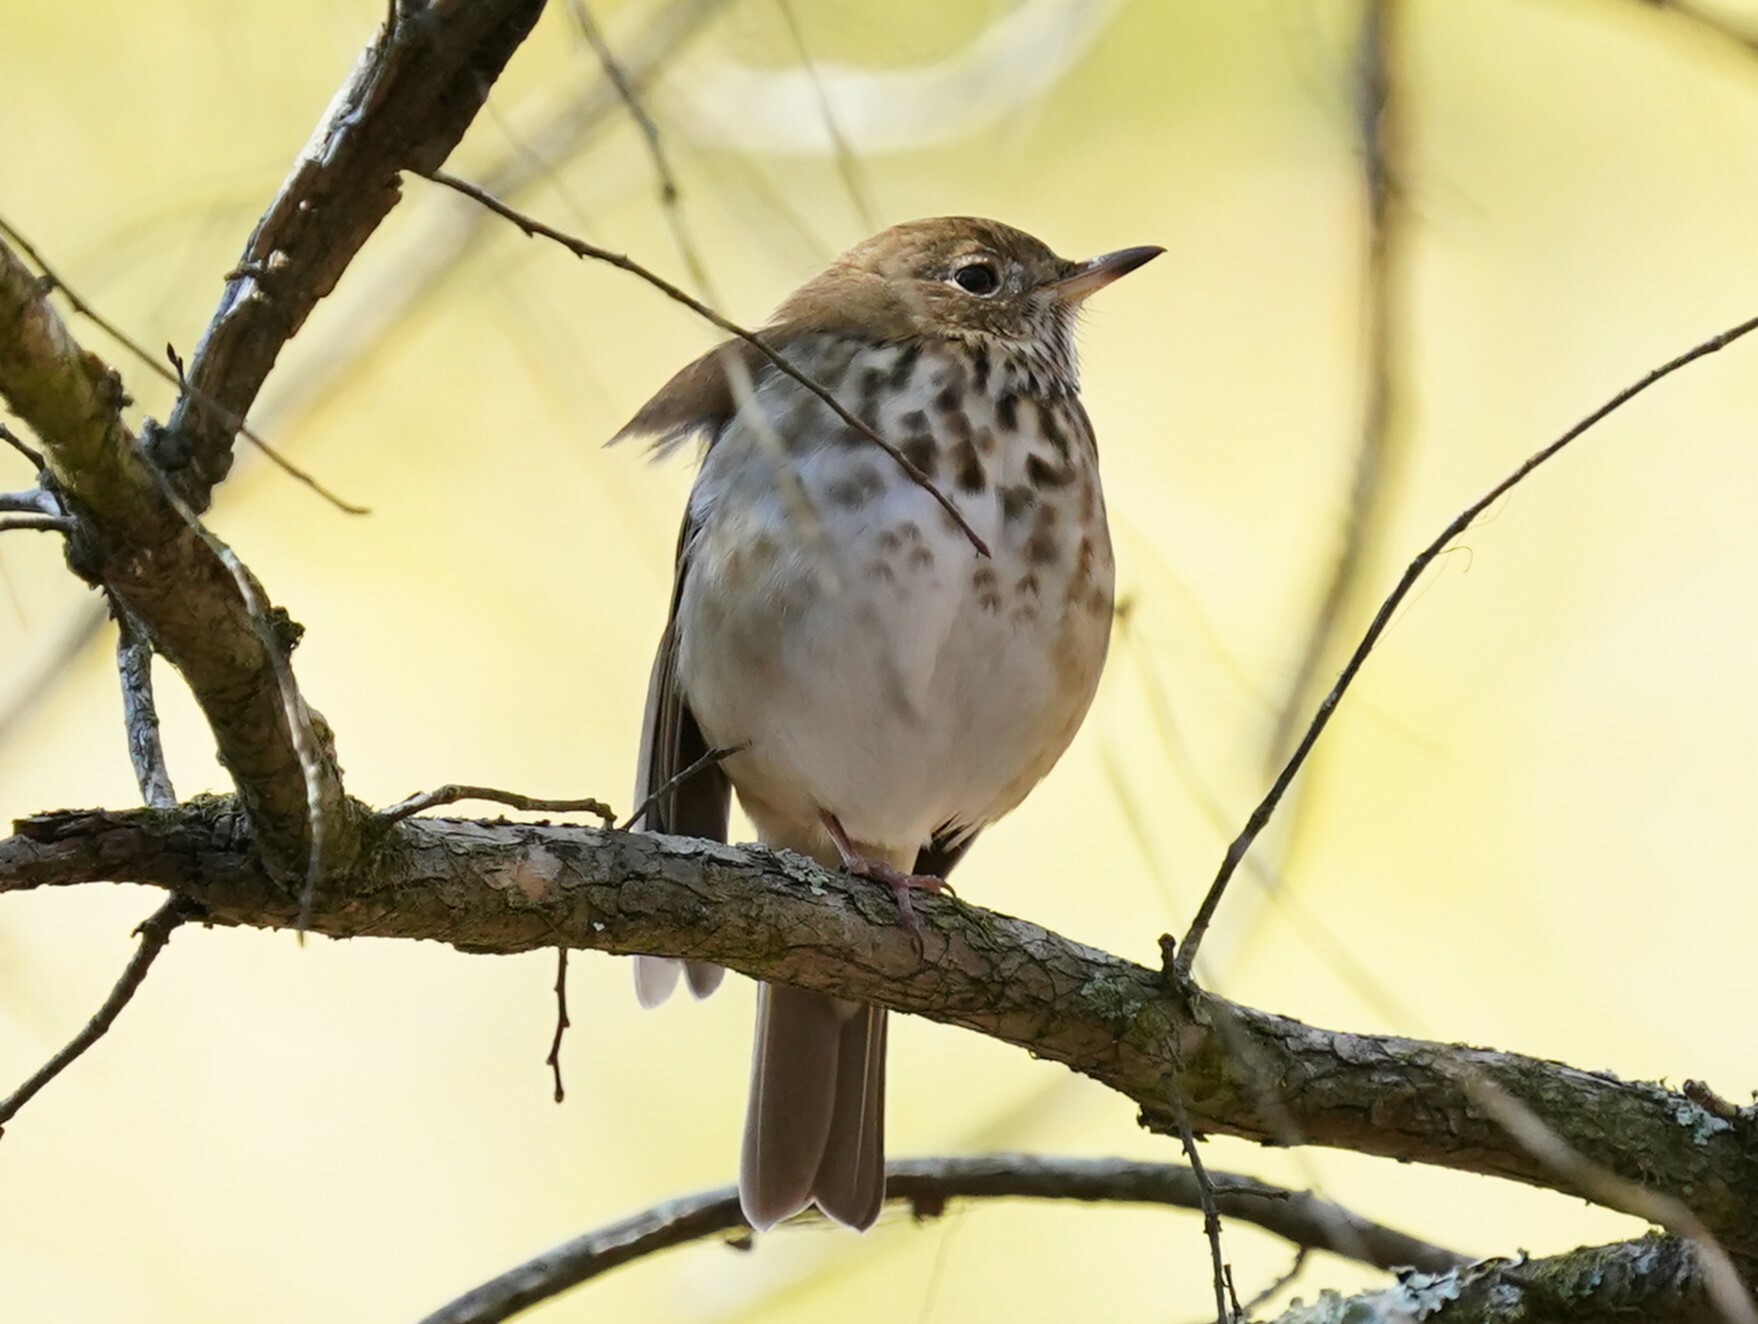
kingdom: Animalia
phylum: Chordata
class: Aves
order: Passeriformes
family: Turdidae
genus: Catharus
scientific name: Catharus guttatus
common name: Hermit thrush
